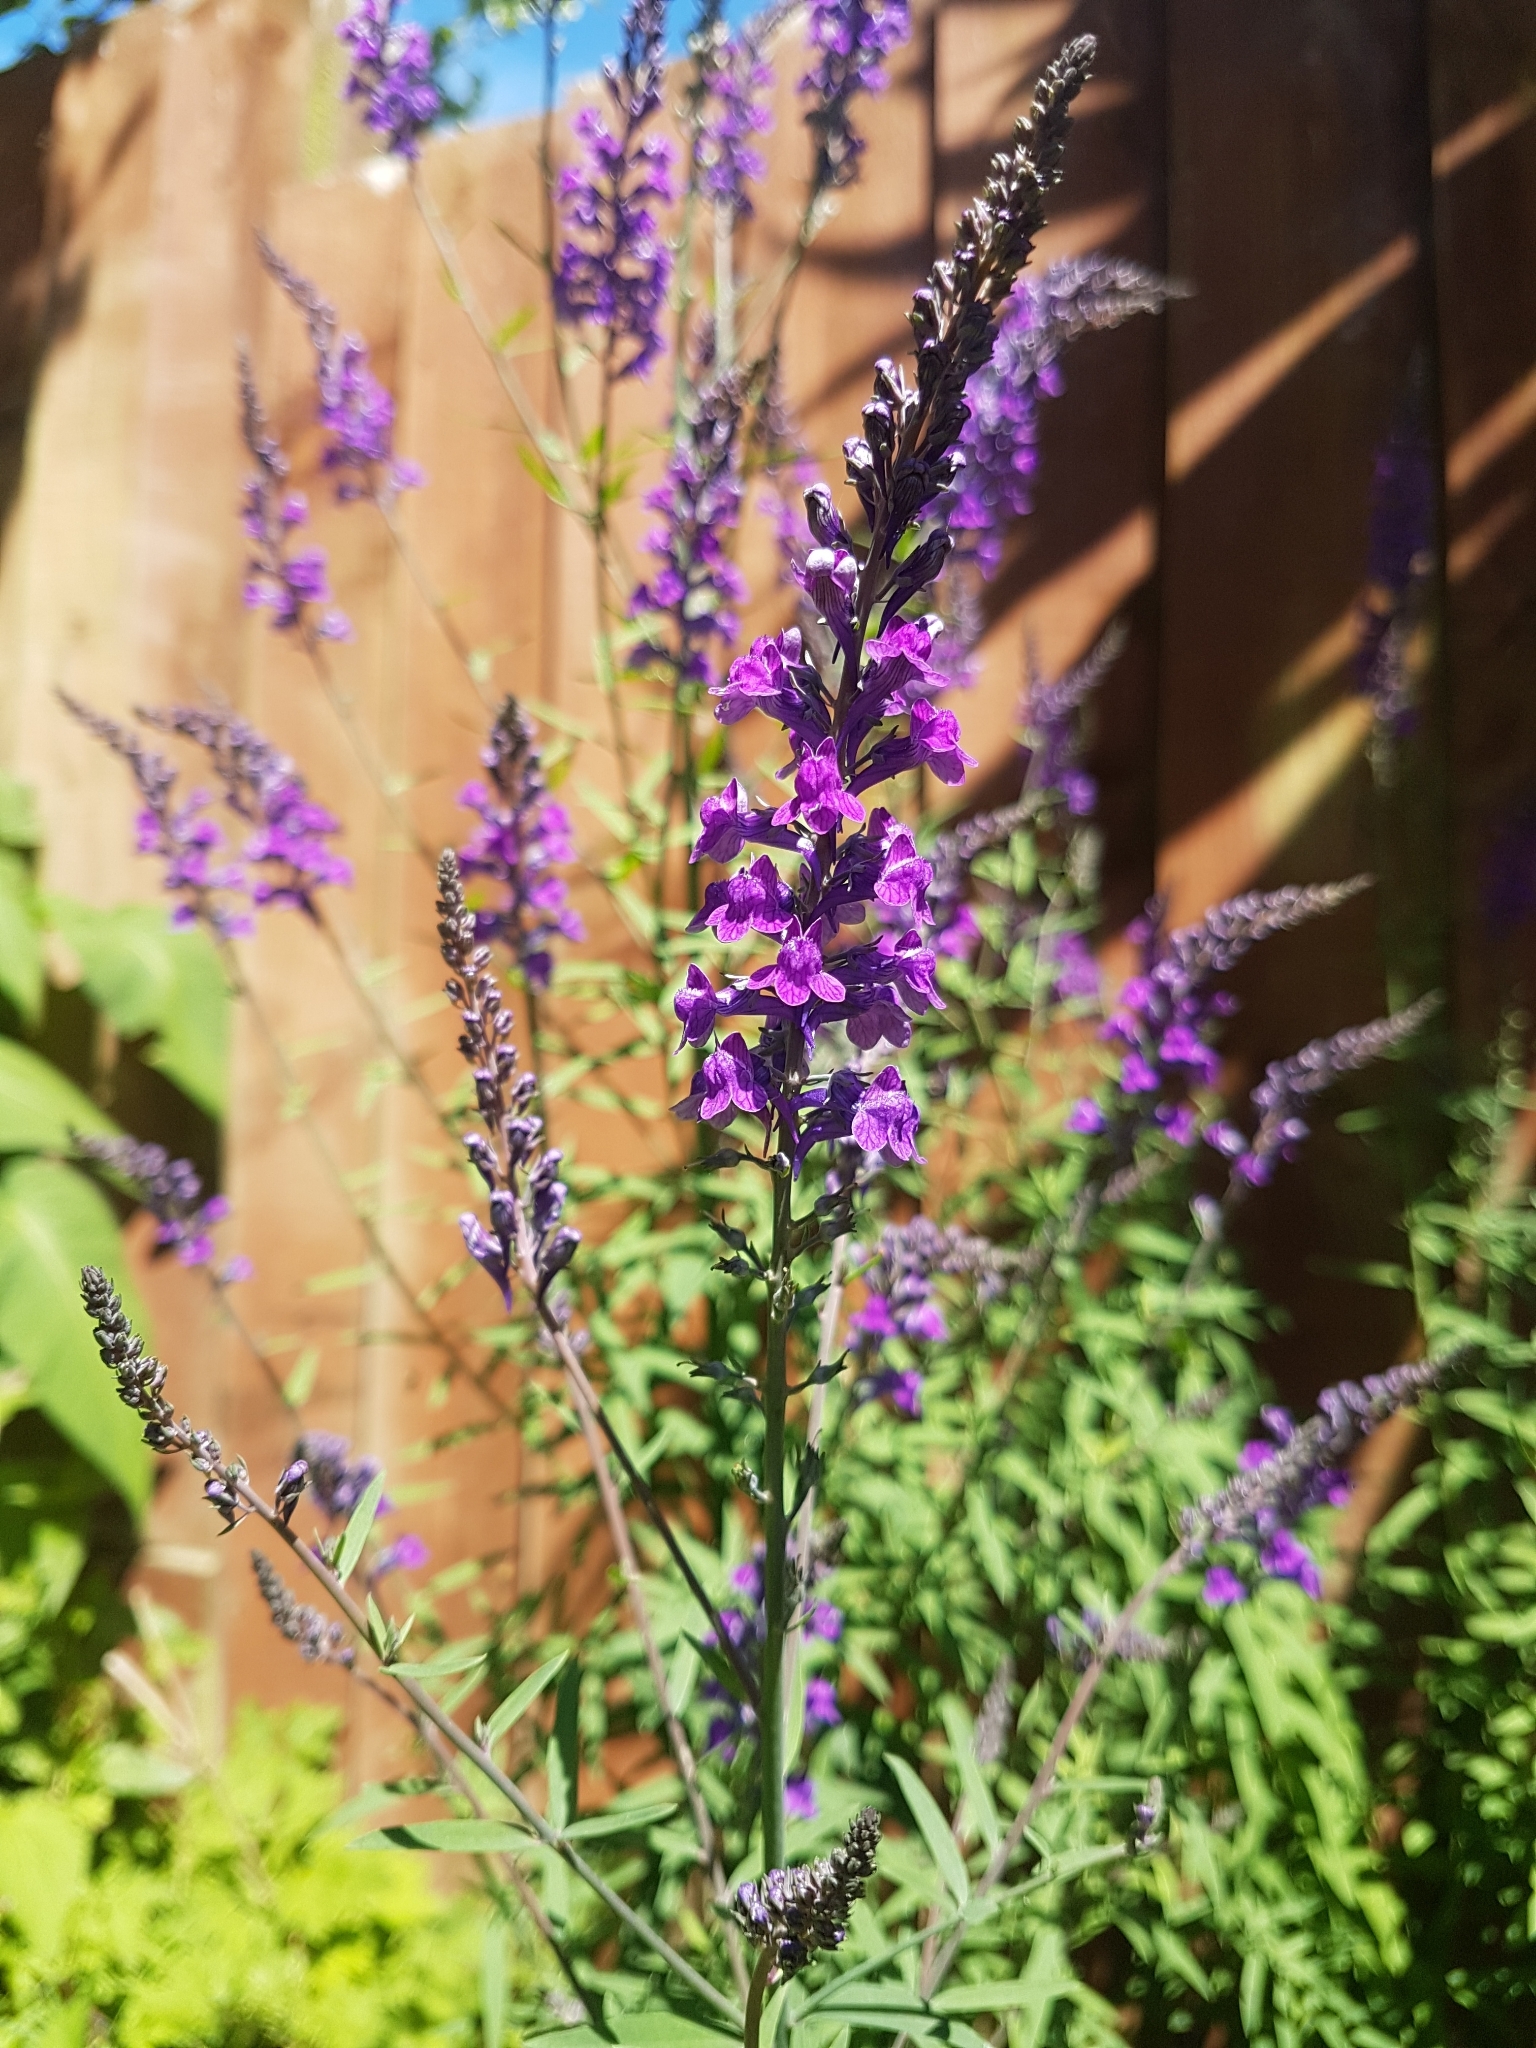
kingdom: Plantae
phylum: Tracheophyta
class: Magnoliopsida
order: Lamiales
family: Plantaginaceae
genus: Linaria
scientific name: Linaria purpurea
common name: Purple toadflax
